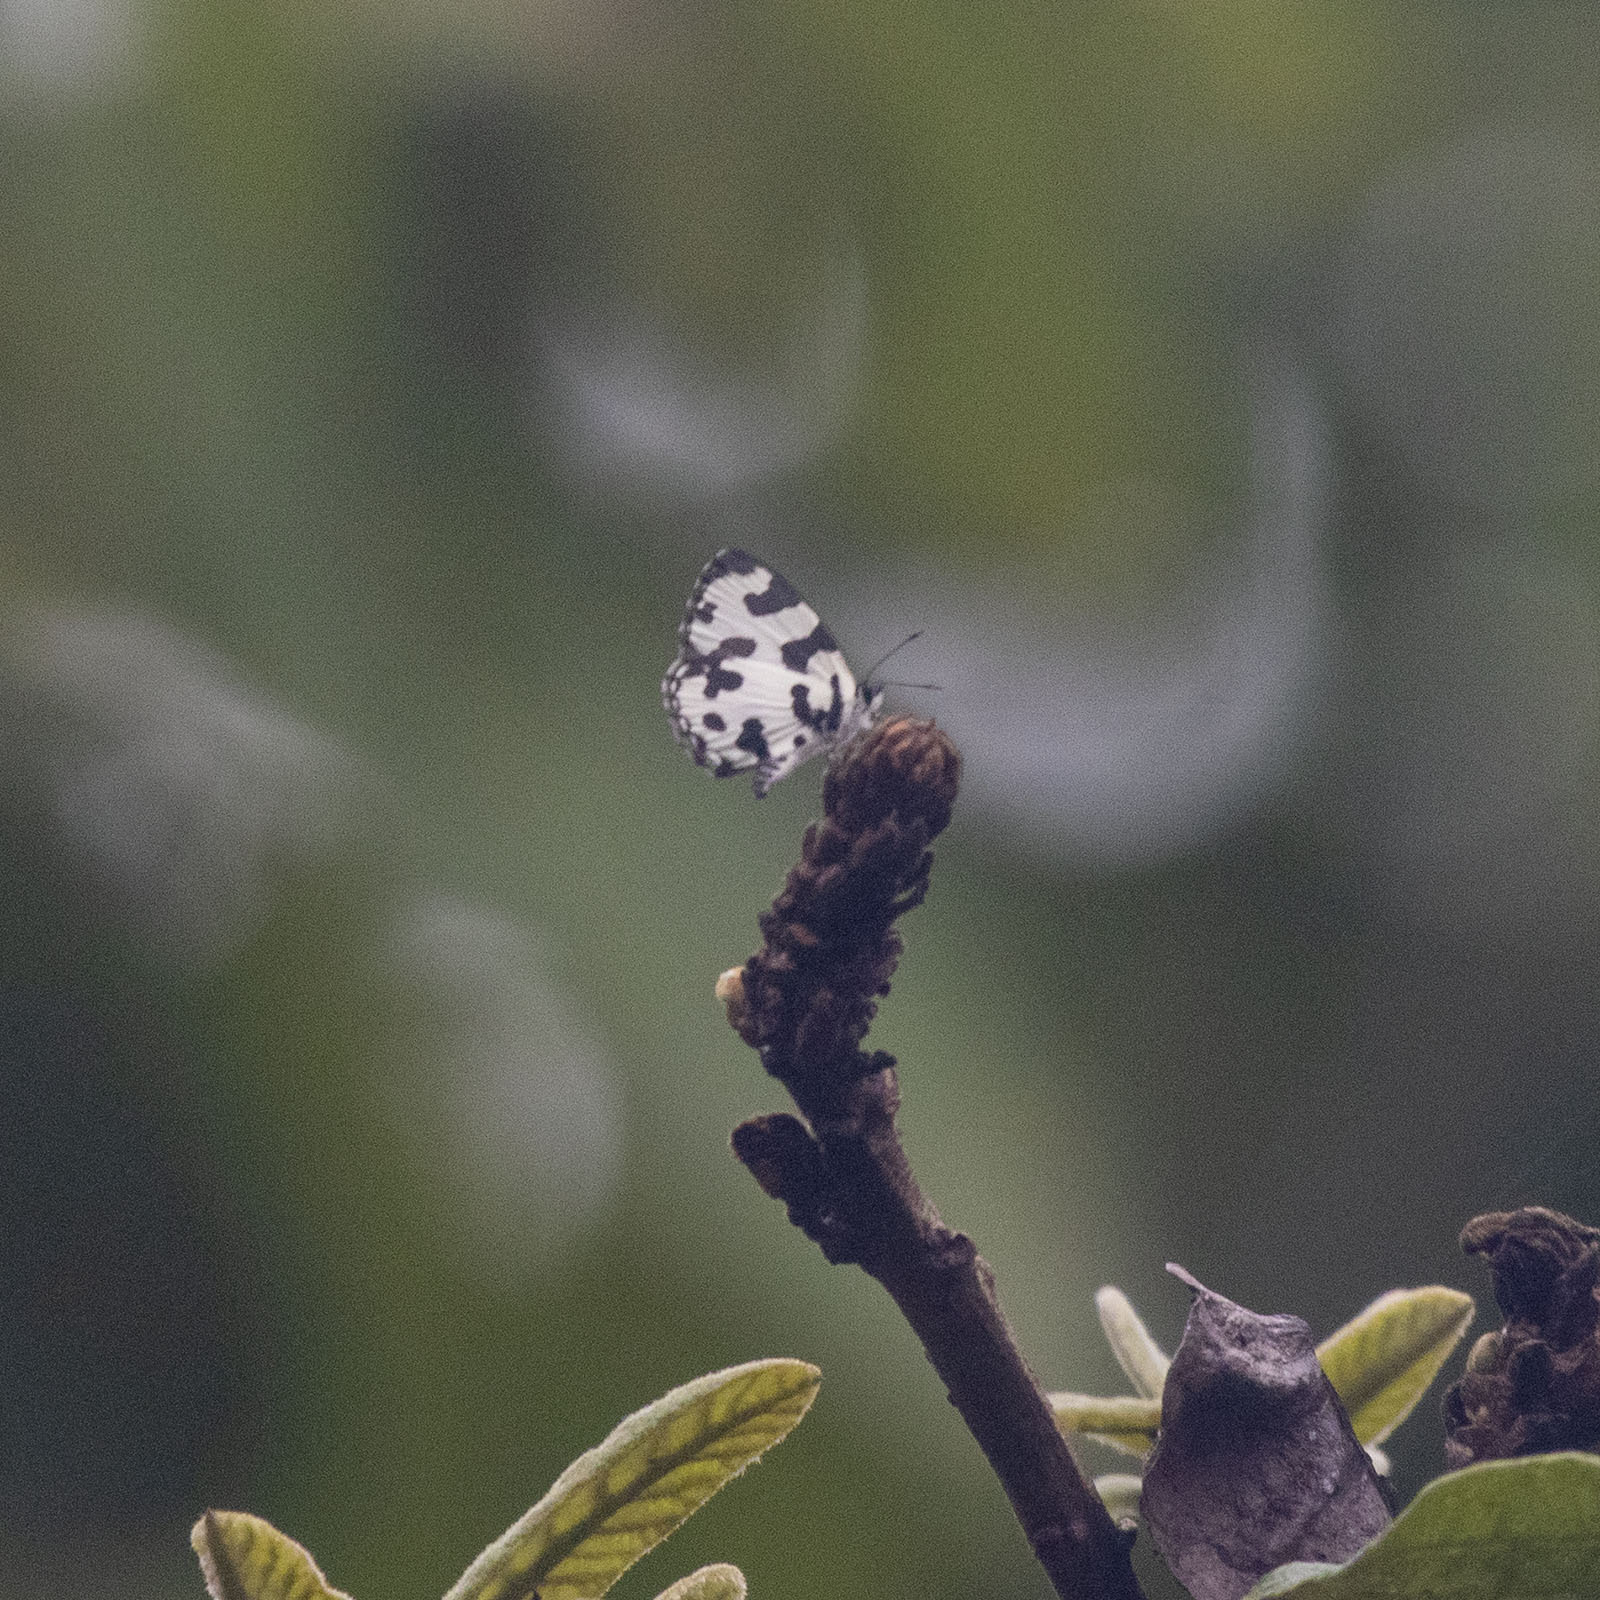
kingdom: Animalia
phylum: Arthropoda
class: Insecta
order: Lepidoptera
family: Lycaenidae
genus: Caleta
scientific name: Caleta decidia
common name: Angled pierrot
